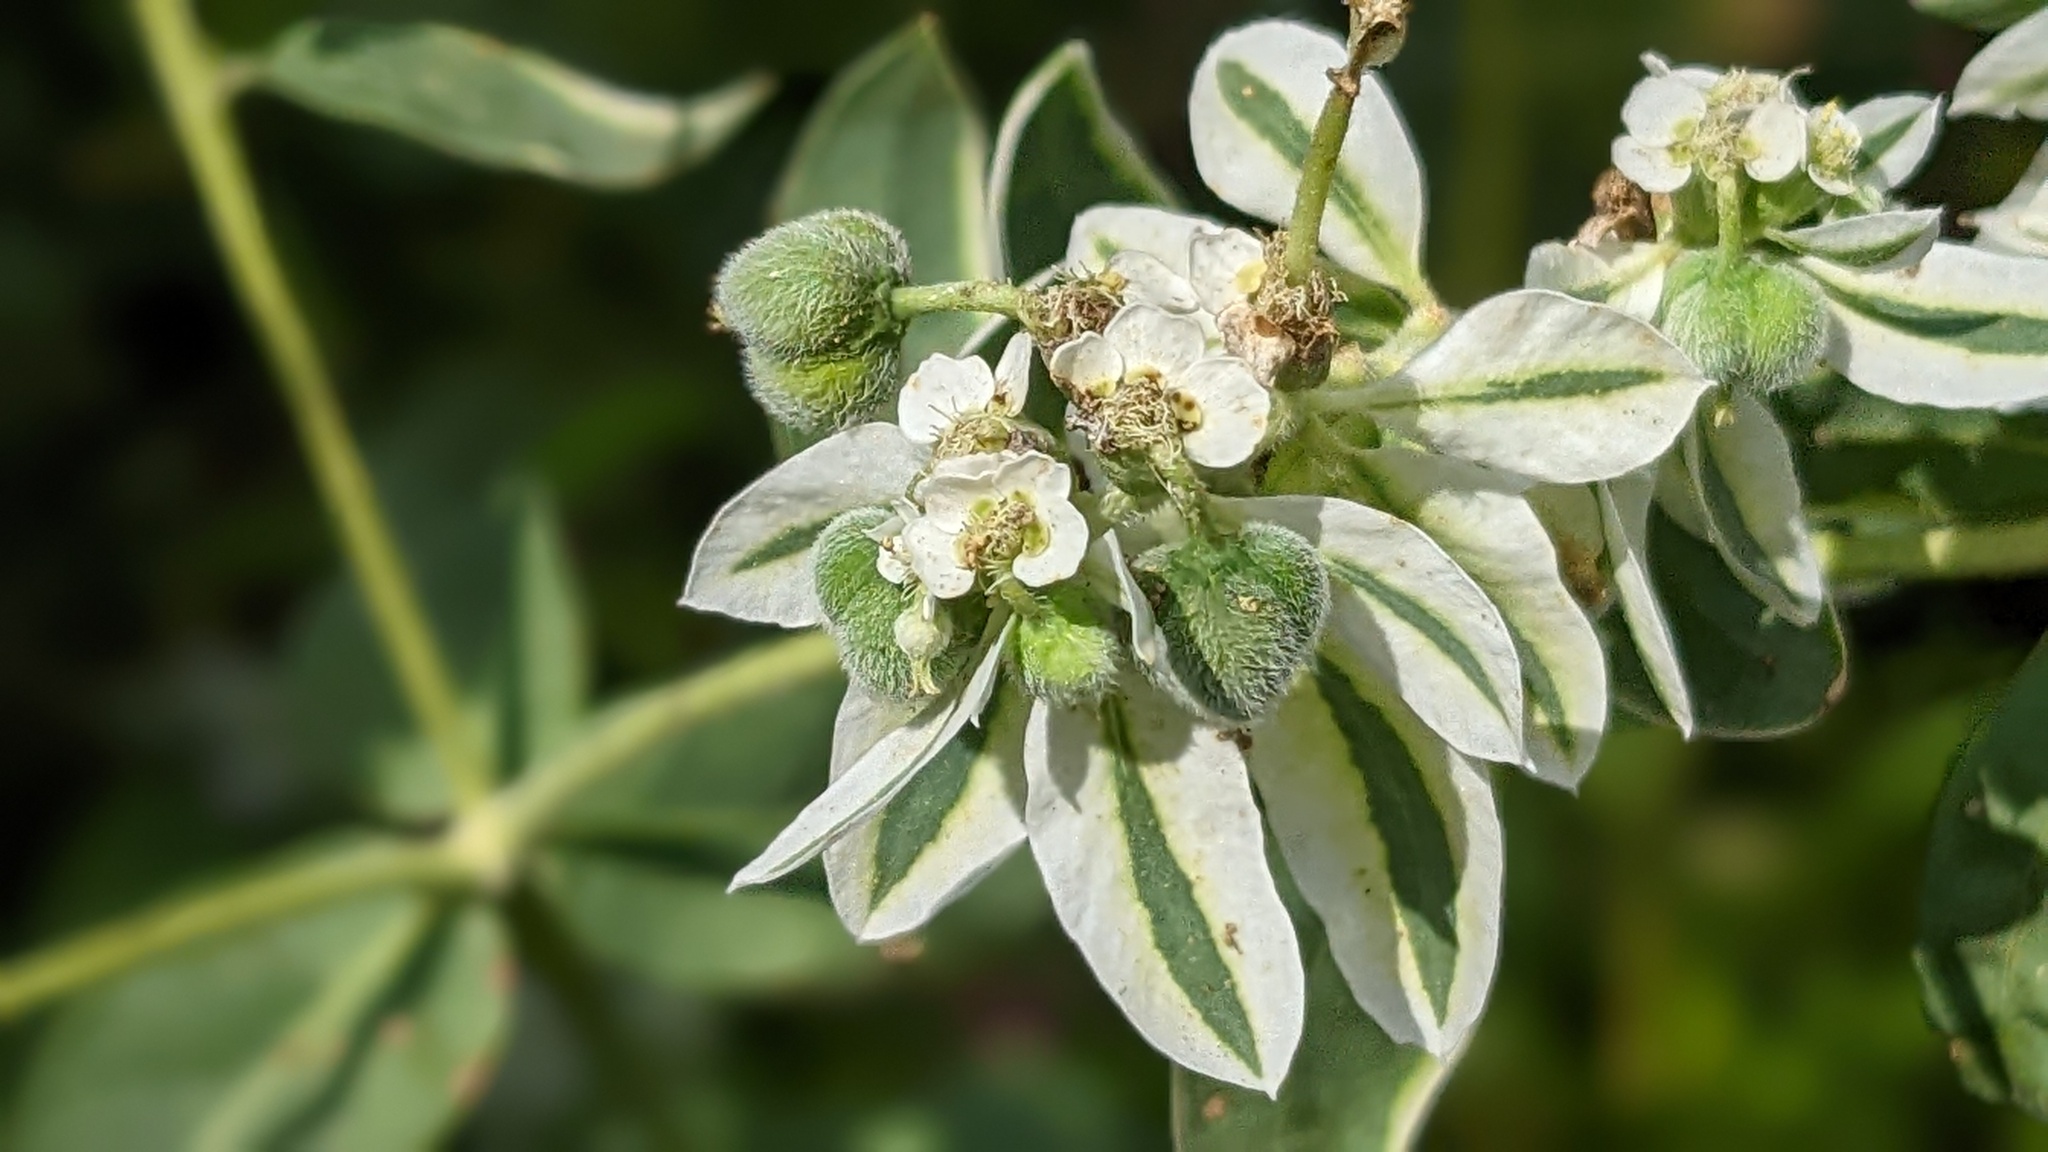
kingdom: Plantae
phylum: Tracheophyta
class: Magnoliopsida
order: Malpighiales
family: Euphorbiaceae
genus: Euphorbia
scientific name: Euphorbia marginata
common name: Ghostweed
